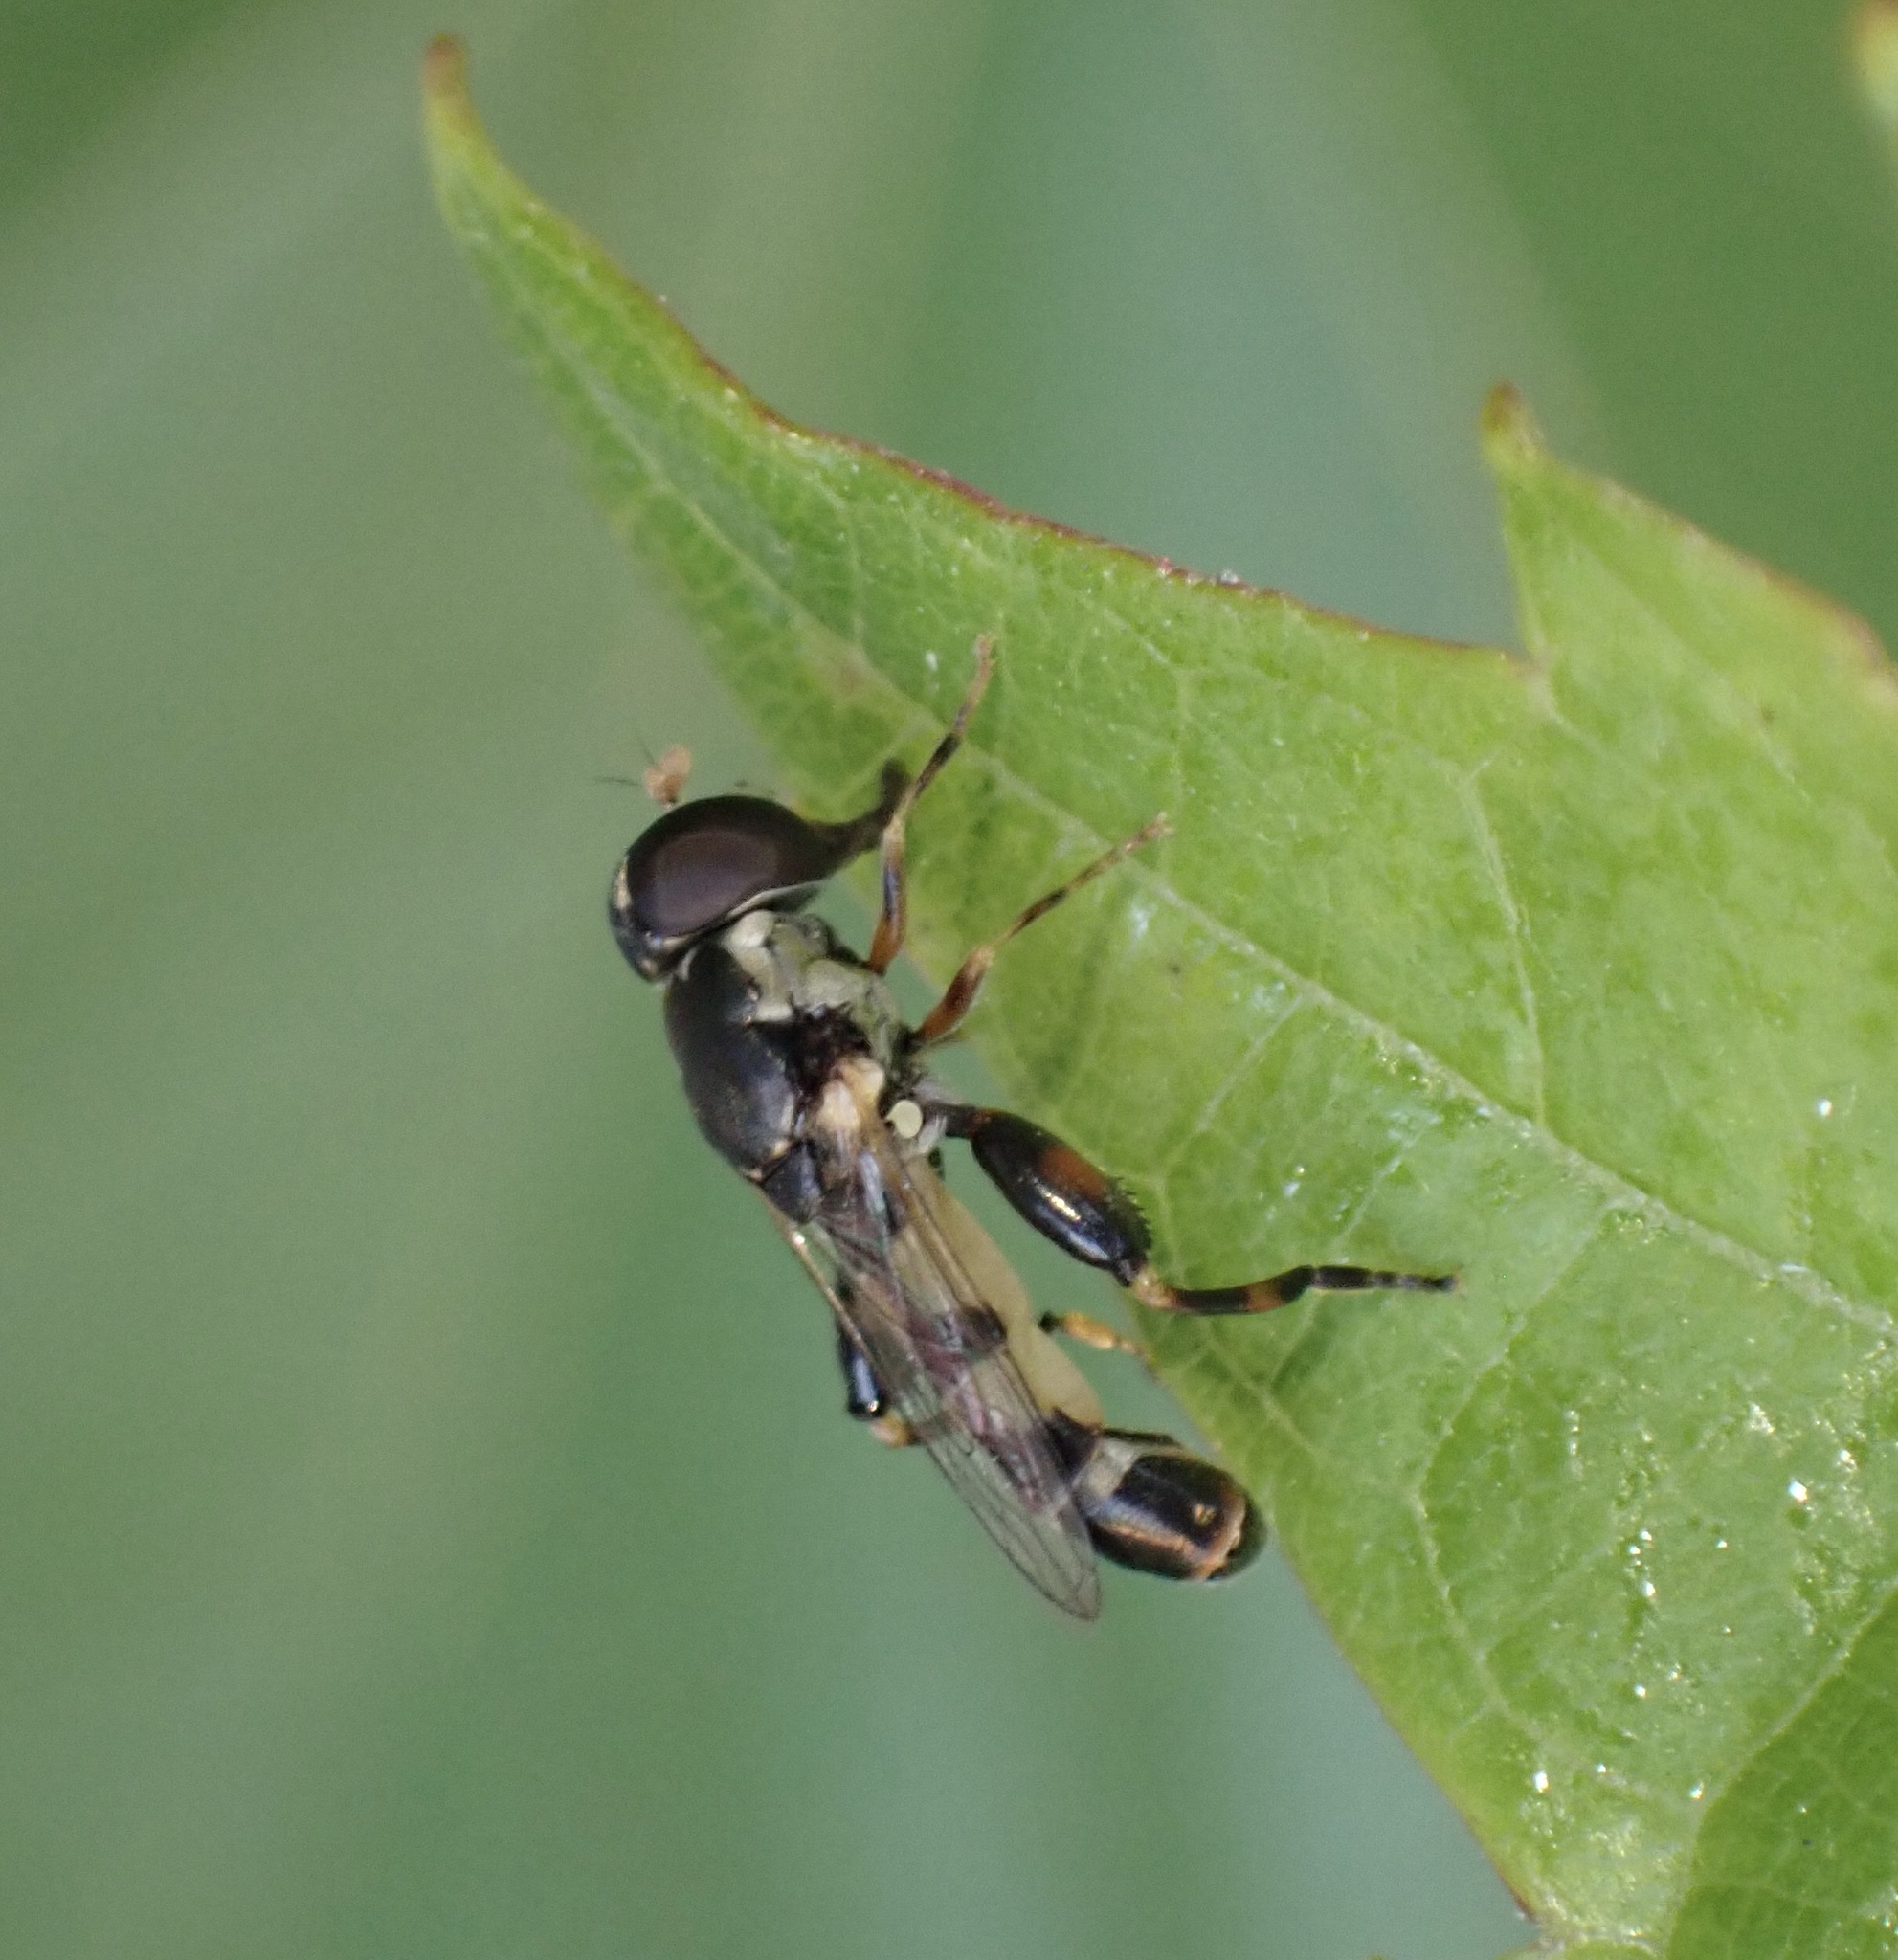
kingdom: Animalia
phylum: Arthropoda
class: Insecta
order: Diptera
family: Syrphidae
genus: Syritta
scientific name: Syritta pipiens
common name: Hover fly
